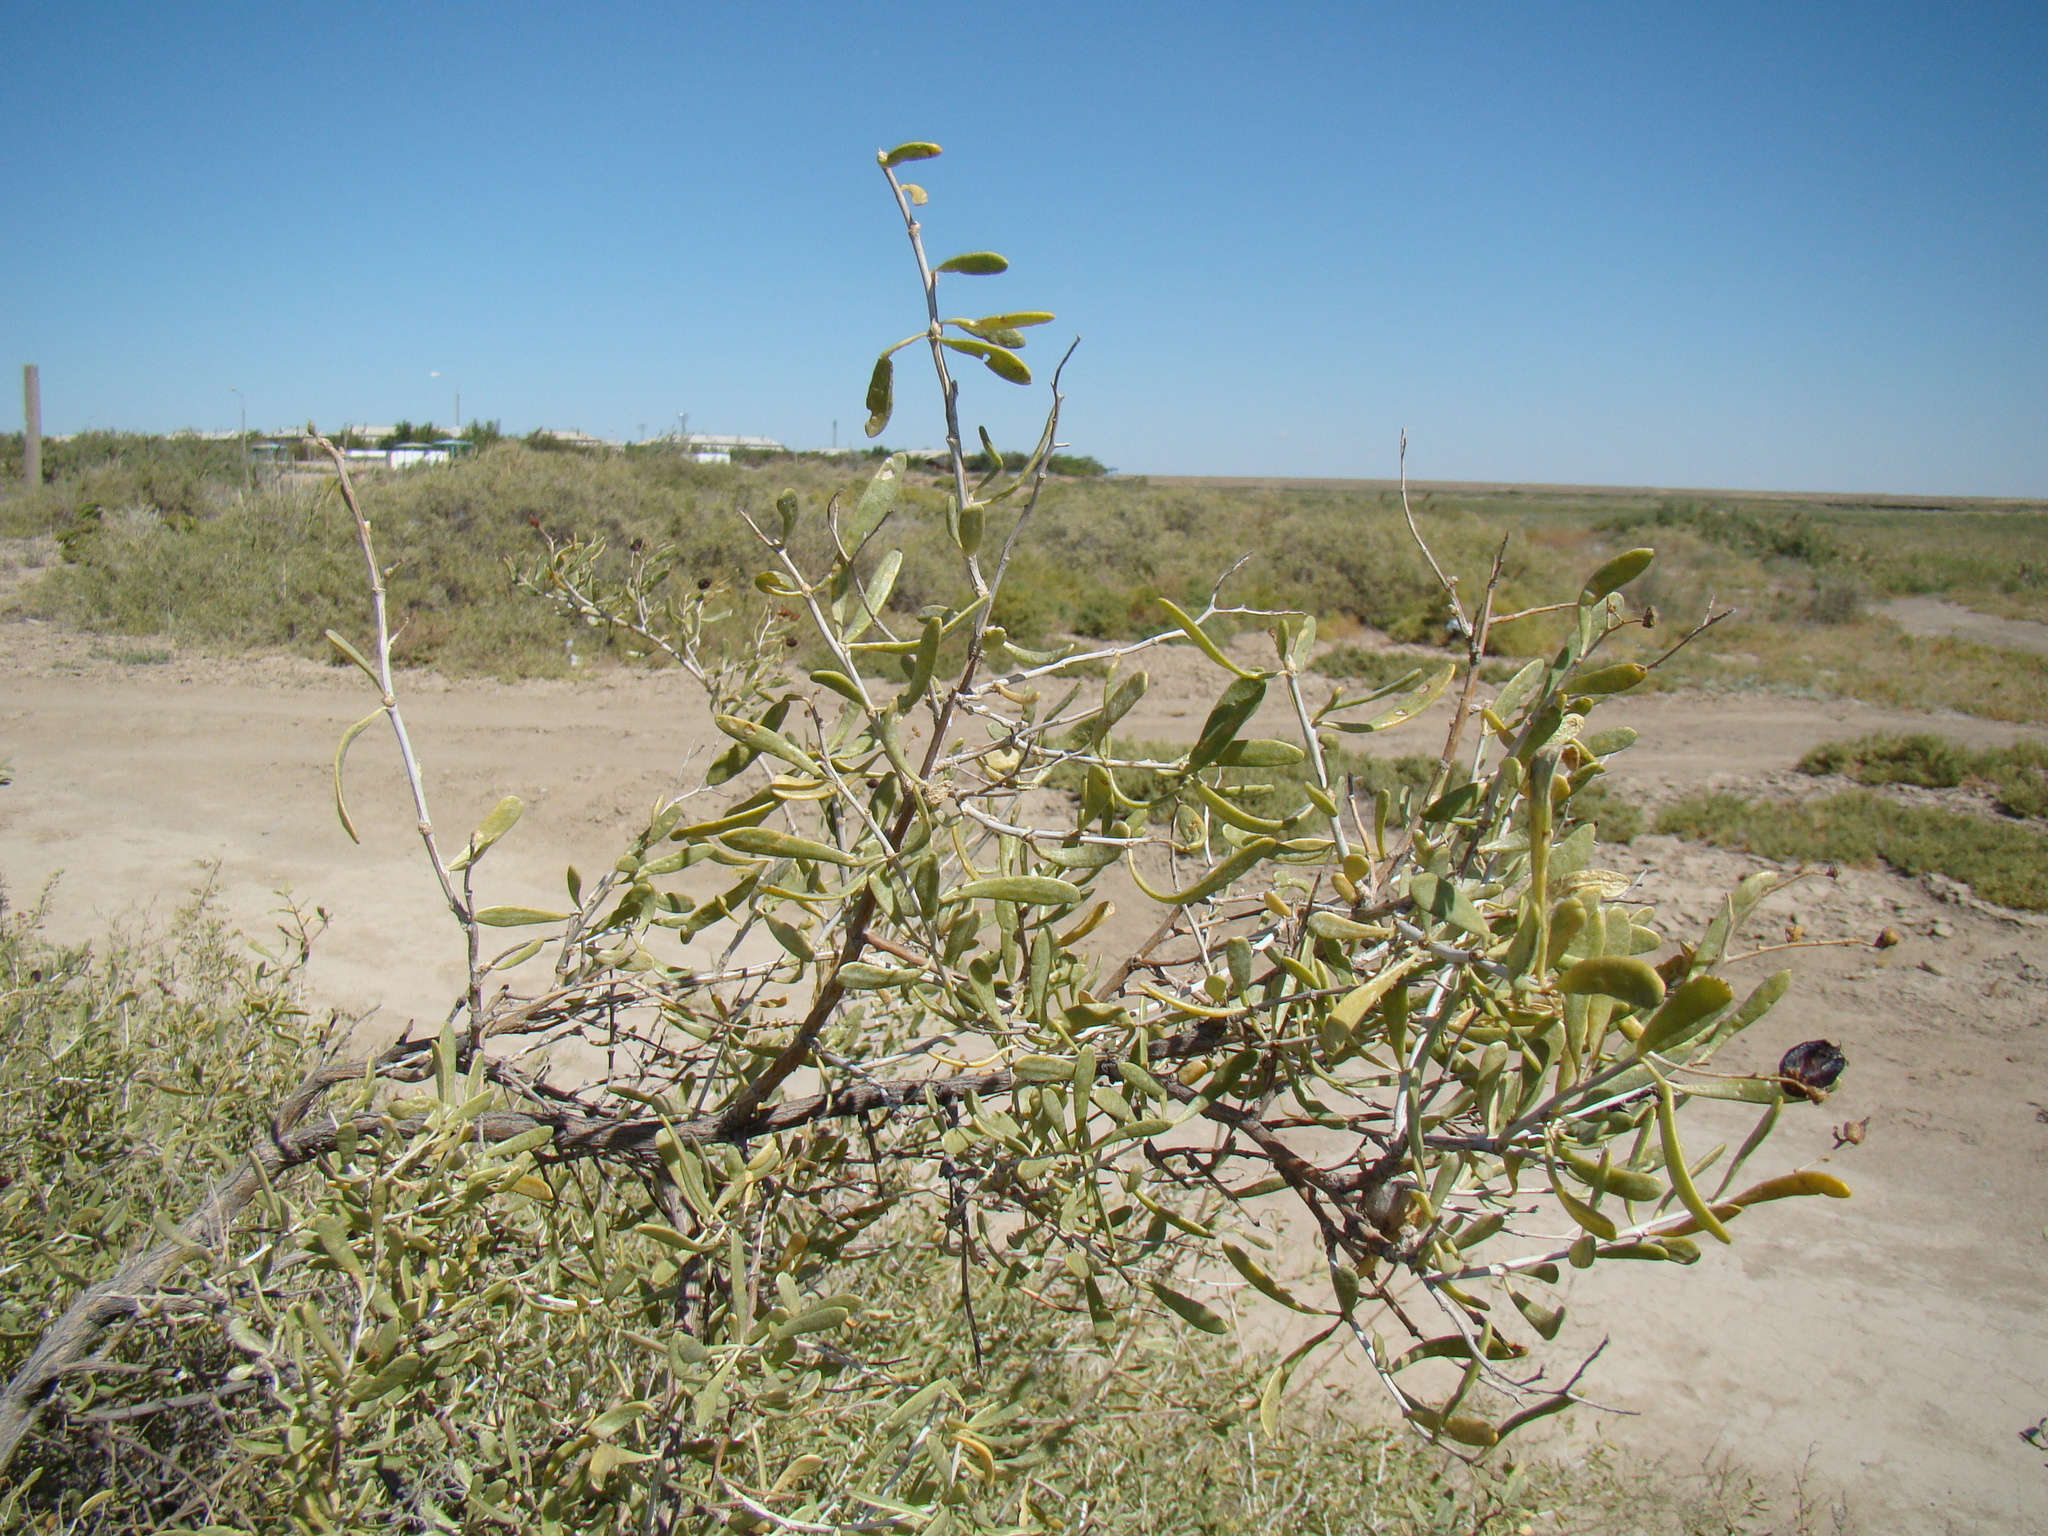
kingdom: Plantae
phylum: Tracheophyta
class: Magnoliopsida
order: Sapindales
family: Nitrariaceae
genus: Nitraria
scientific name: Nitraria schoberi
